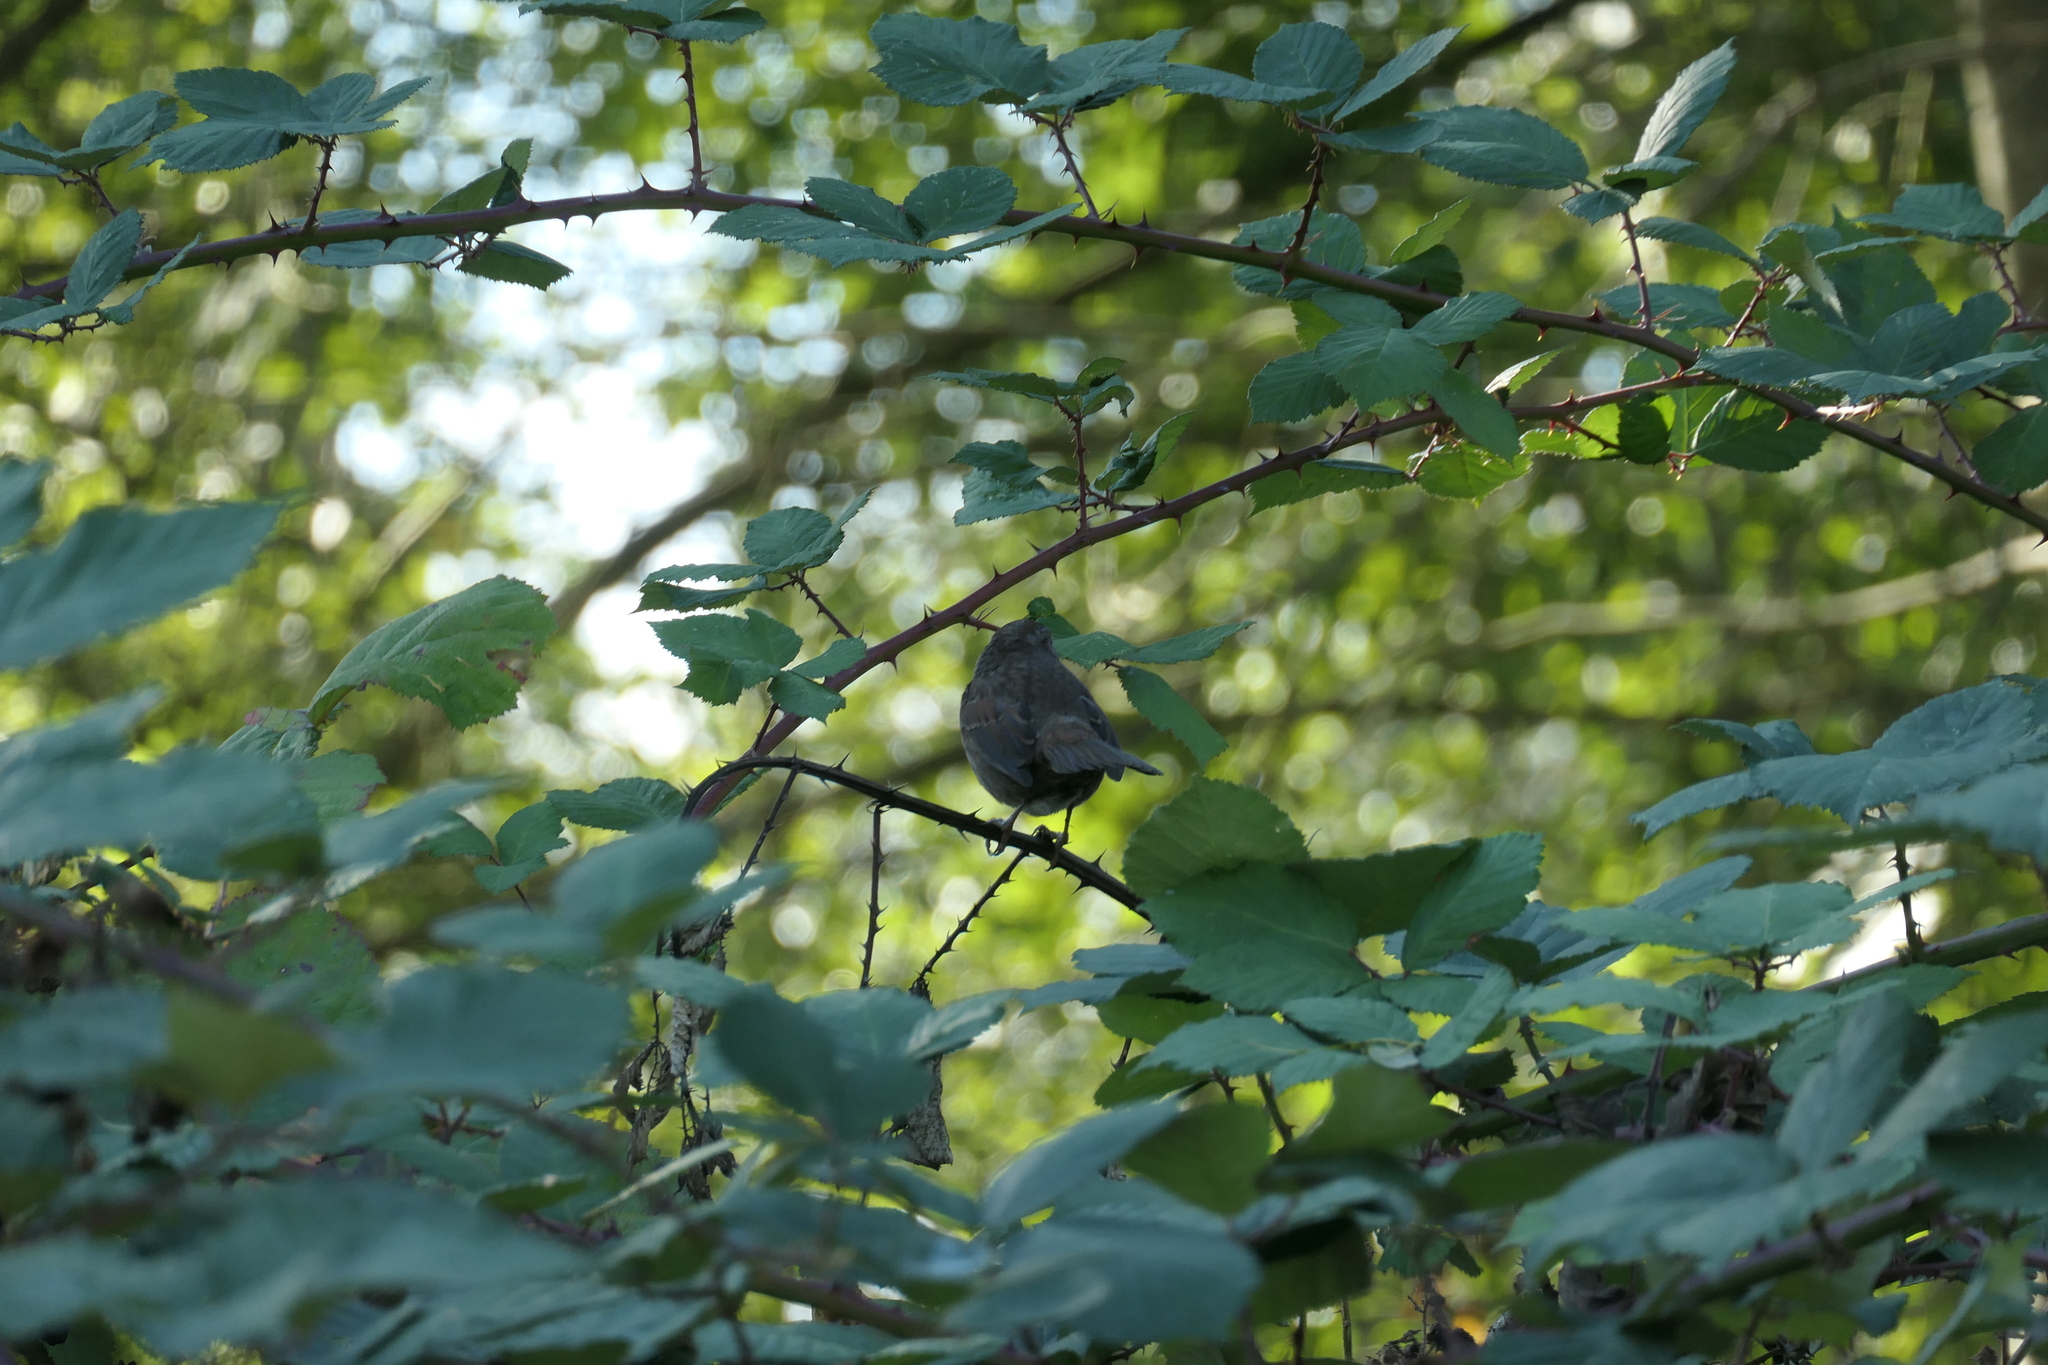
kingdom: Animalia
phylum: Chordata
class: Aves
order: Passeriformes
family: Passerellidae
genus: Melospiza
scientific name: Melospiza melodia
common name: Song sparrow
